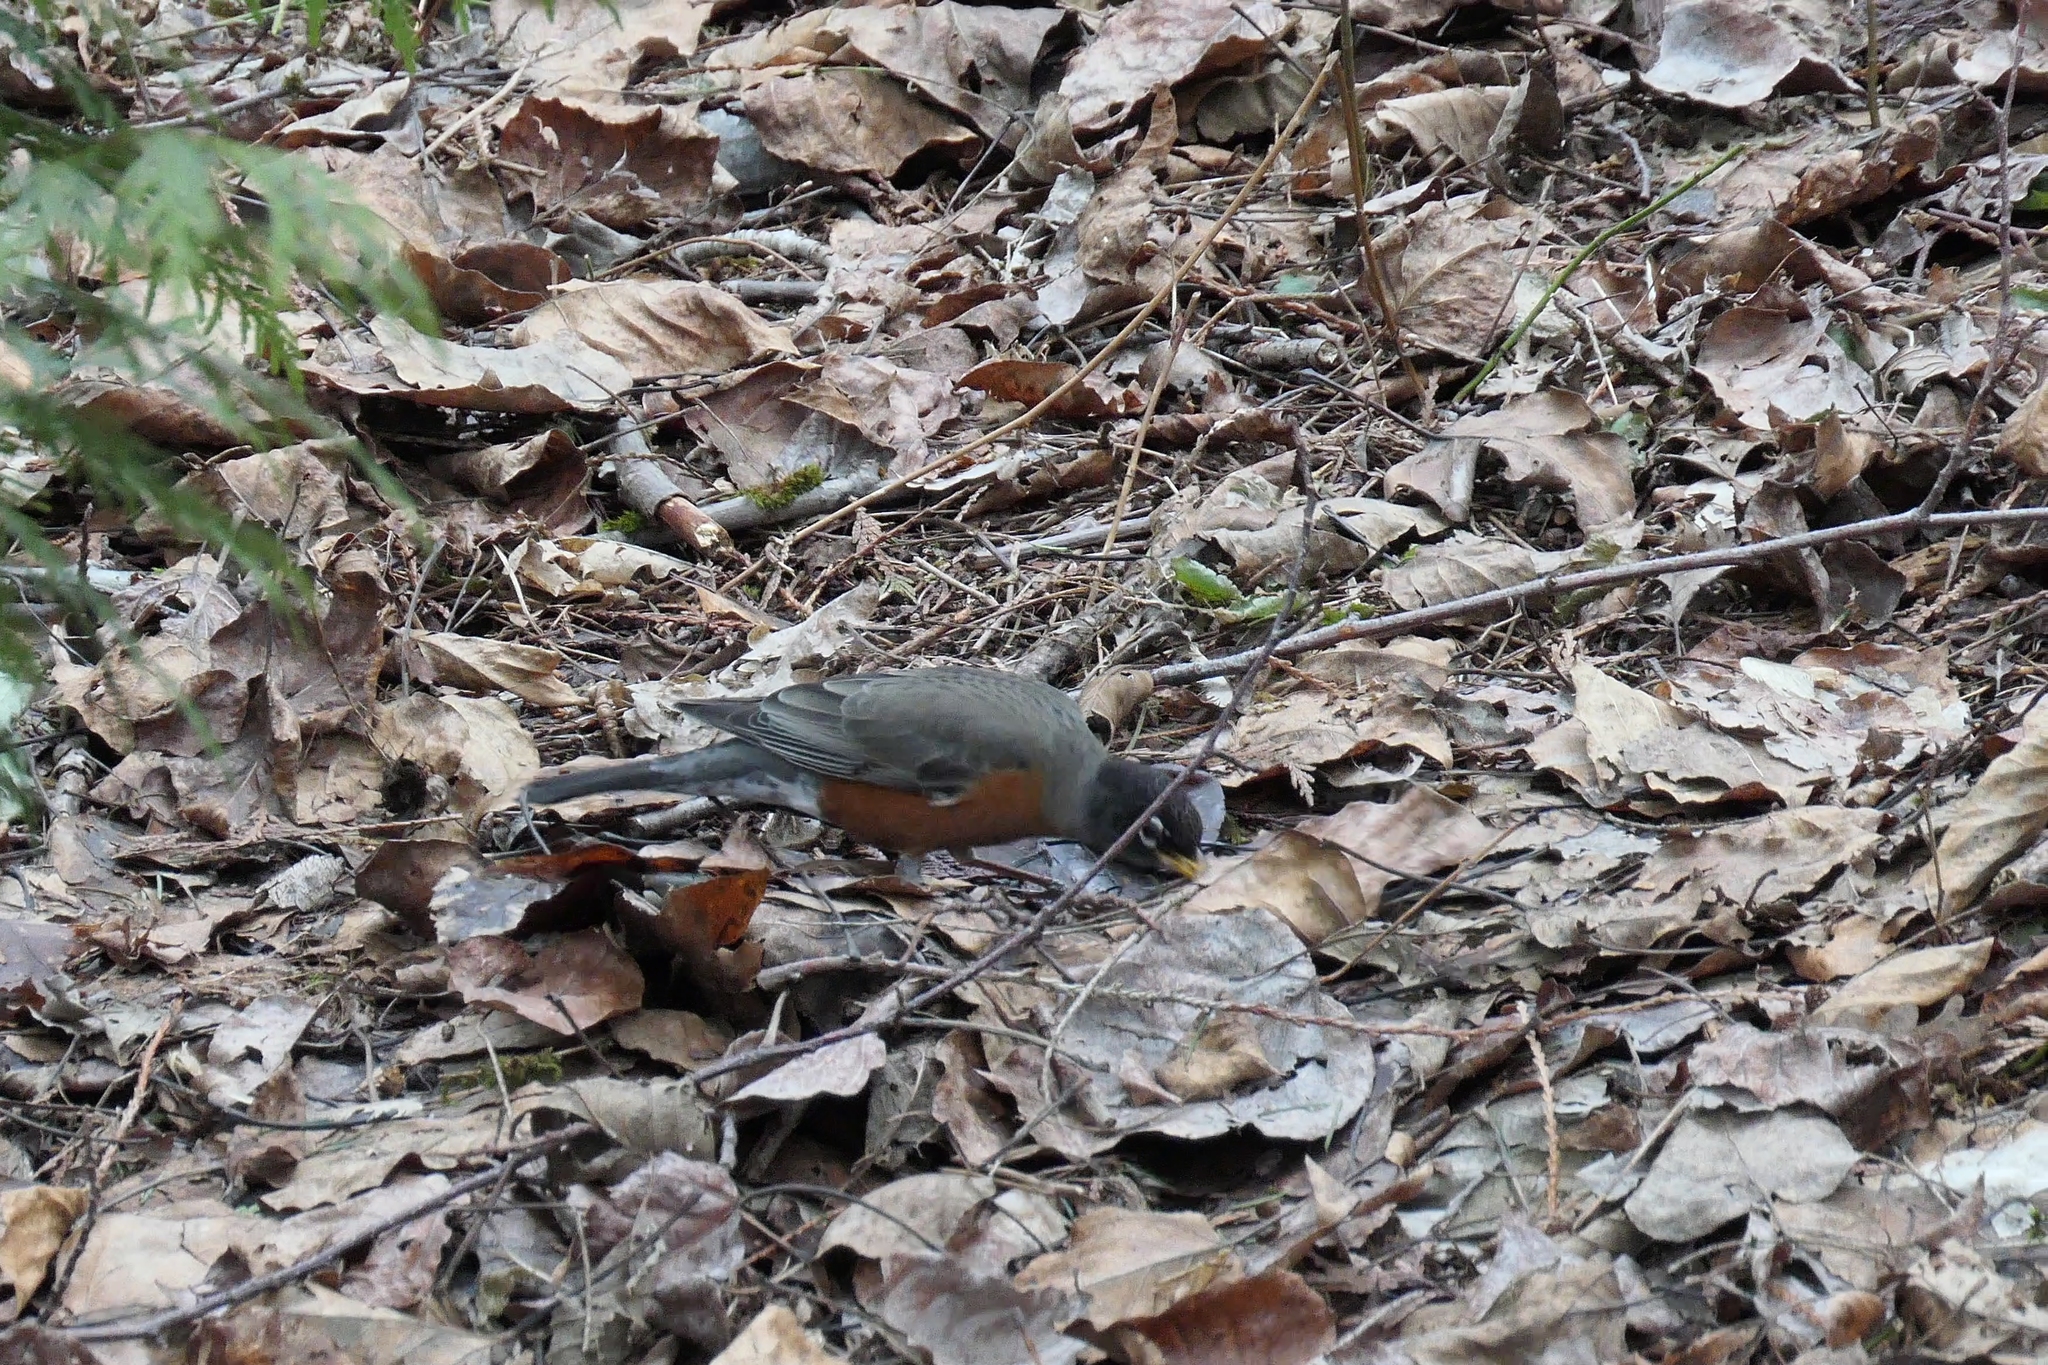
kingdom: Animalia
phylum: Chordata
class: Aves
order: Passeriformes
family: Turdidae
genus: Turdus
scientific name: Turdus migratorius
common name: American robin
